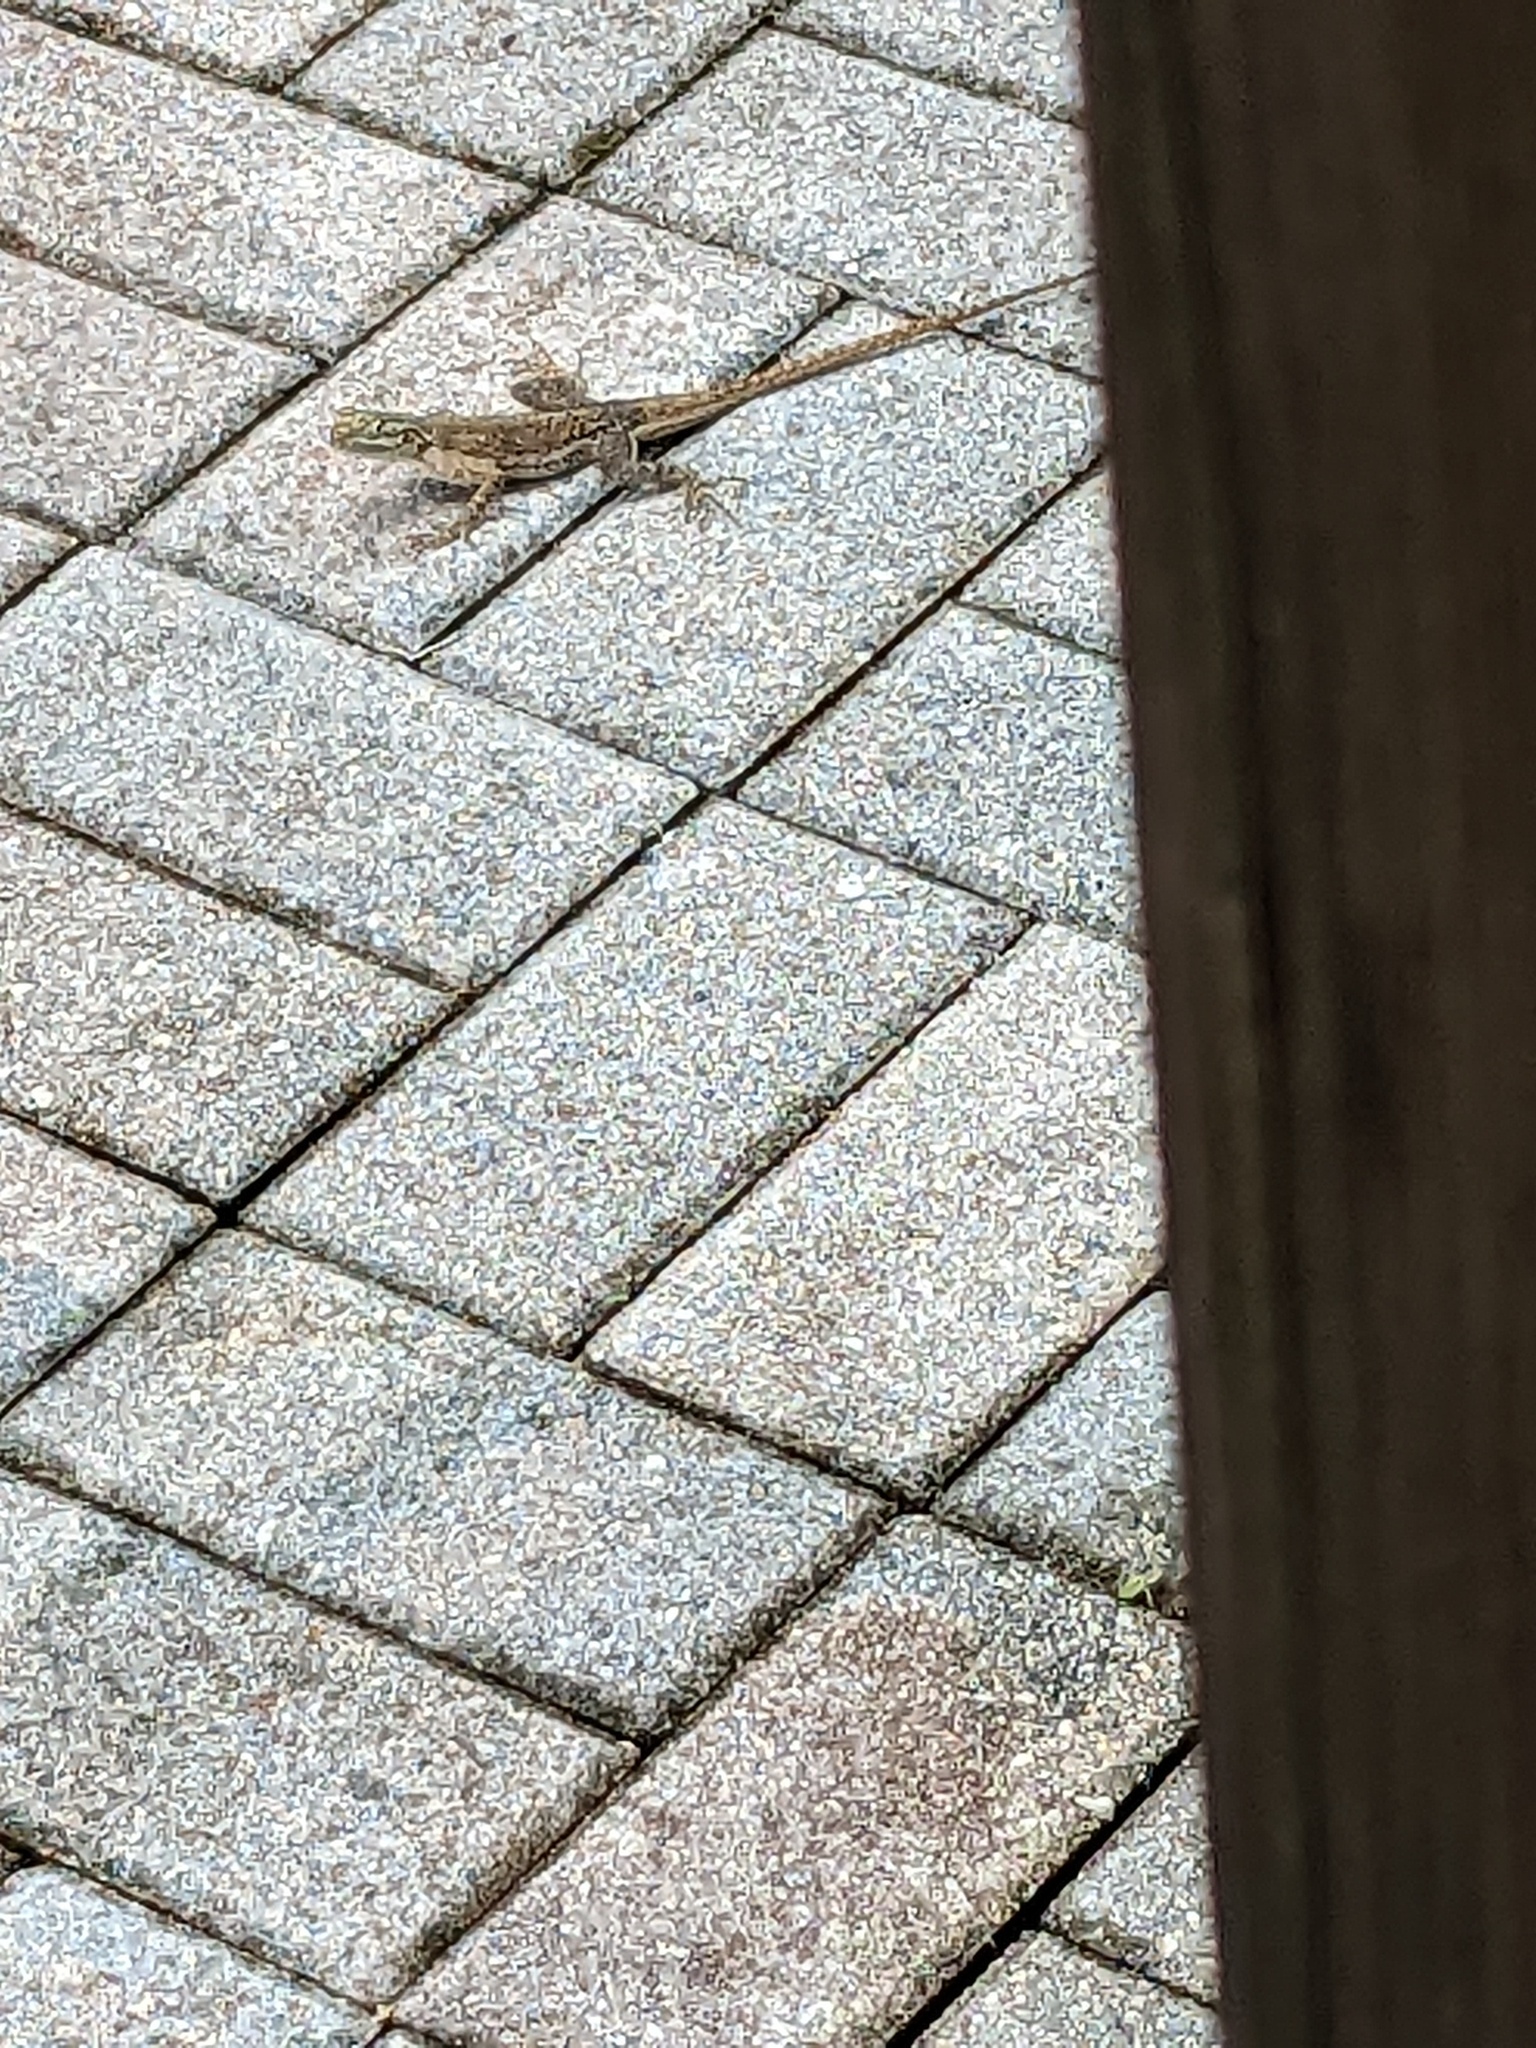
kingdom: Animalia
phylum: Chordata
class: Squamata
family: Agamidae
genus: Agama
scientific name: Agama picticauda
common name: Red-headed agama
